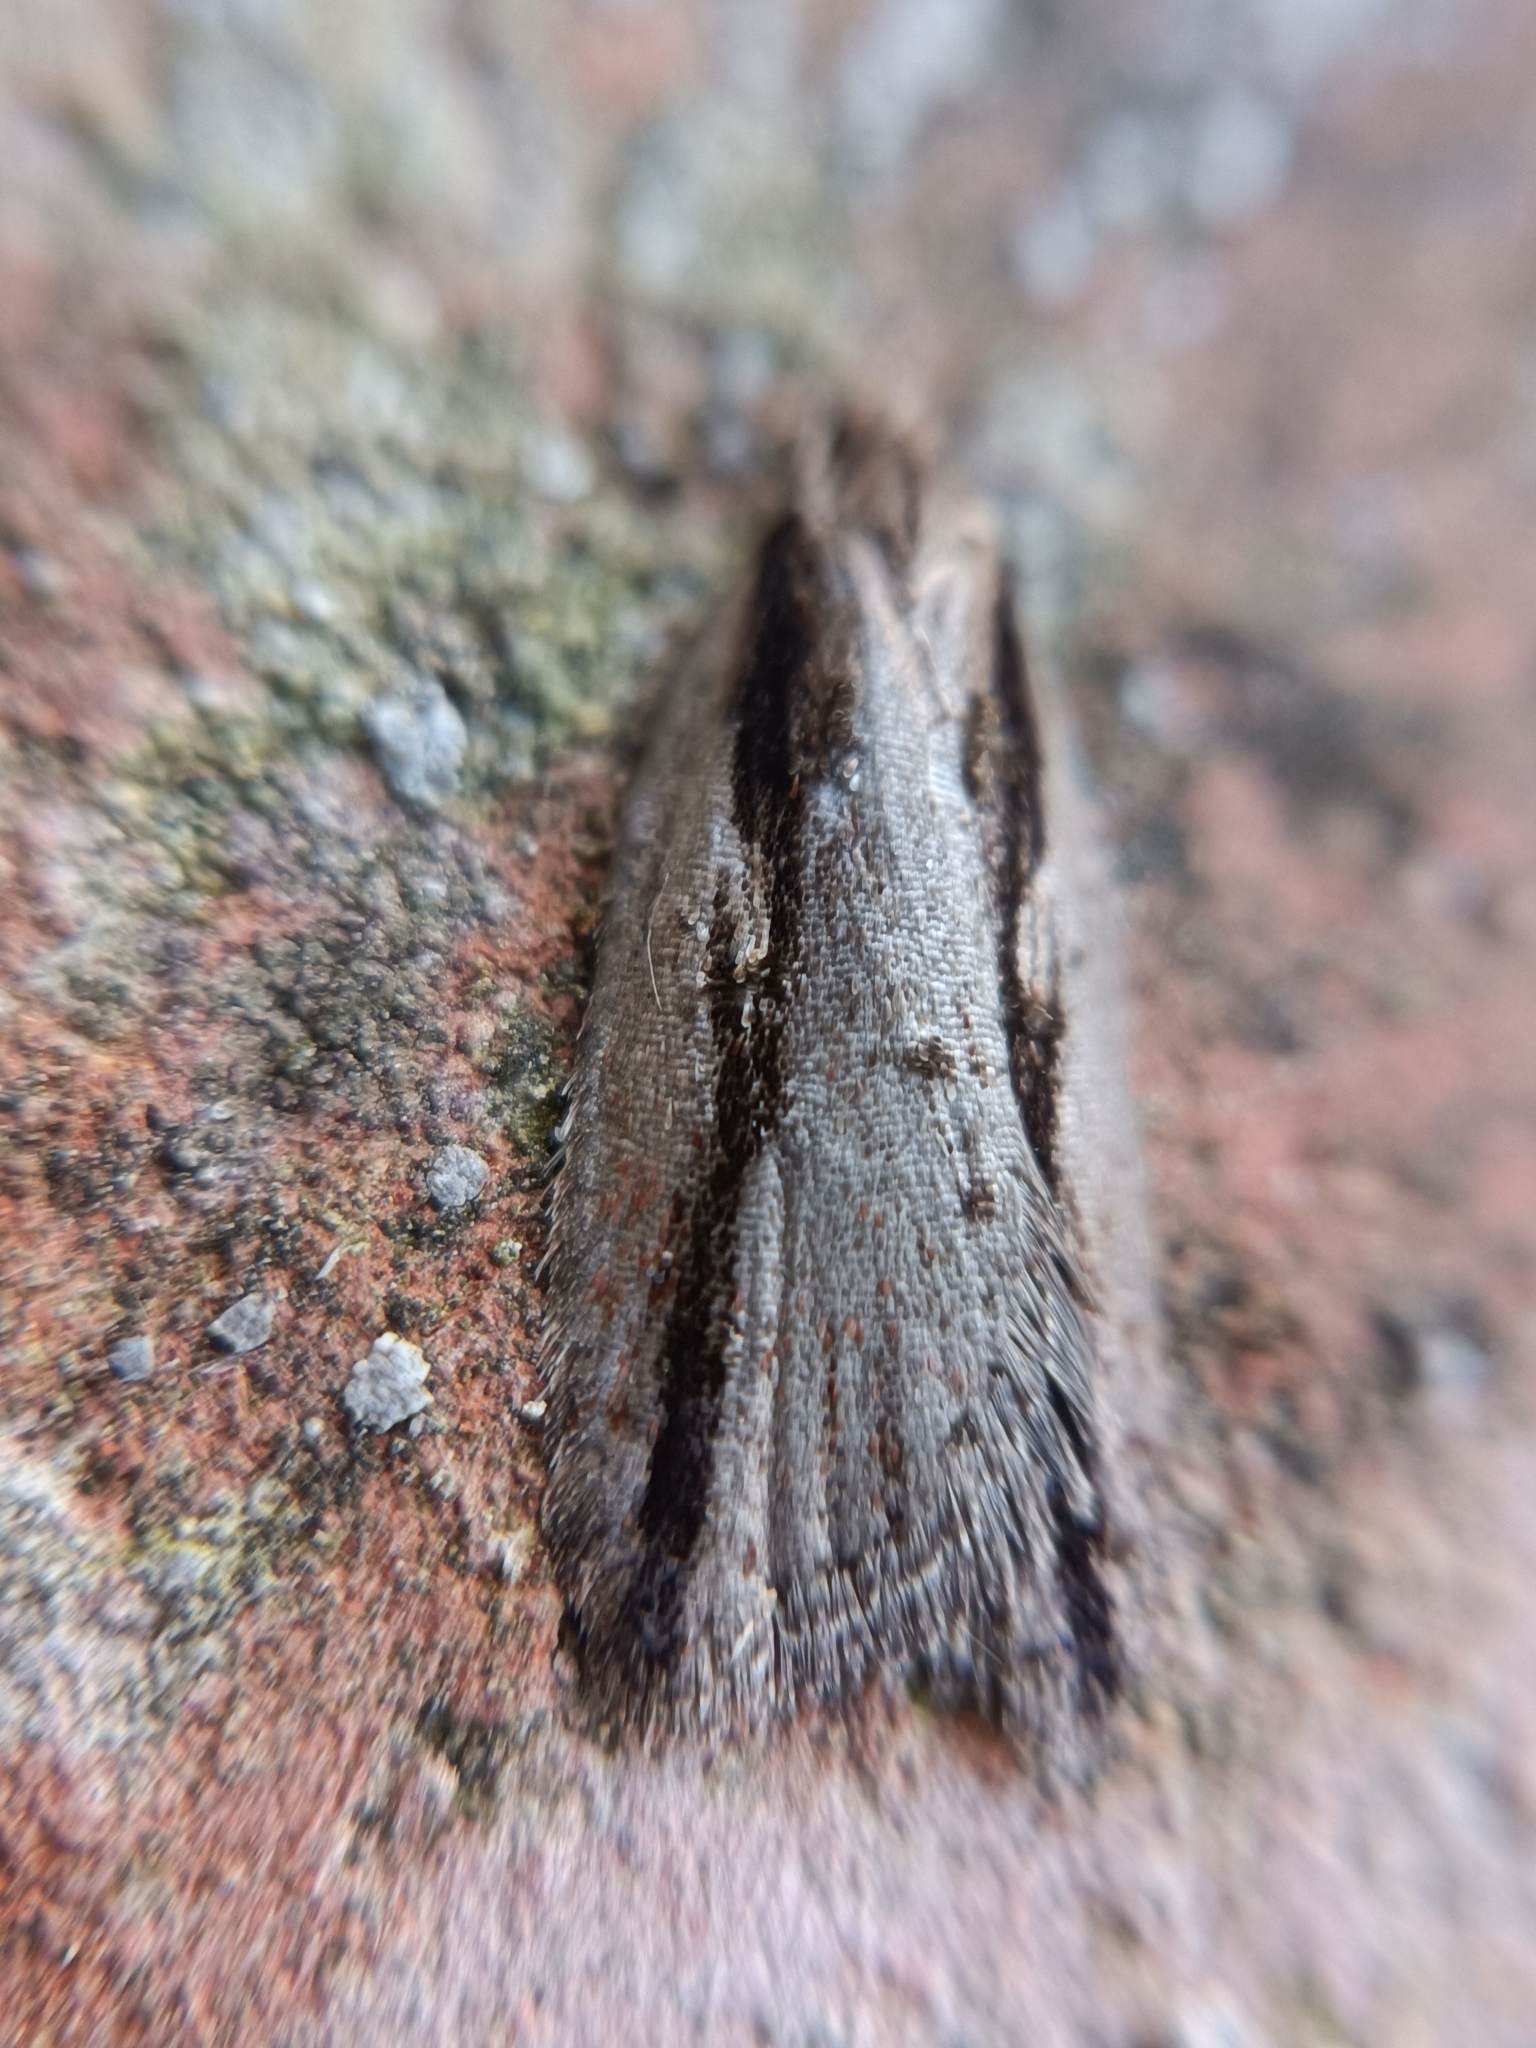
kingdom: Animalia
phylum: Arthropoda
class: Insecta
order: Lepidoptera
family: Tortricidae
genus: Acleris
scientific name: Acleris umbrana
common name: Dark-streaked button
